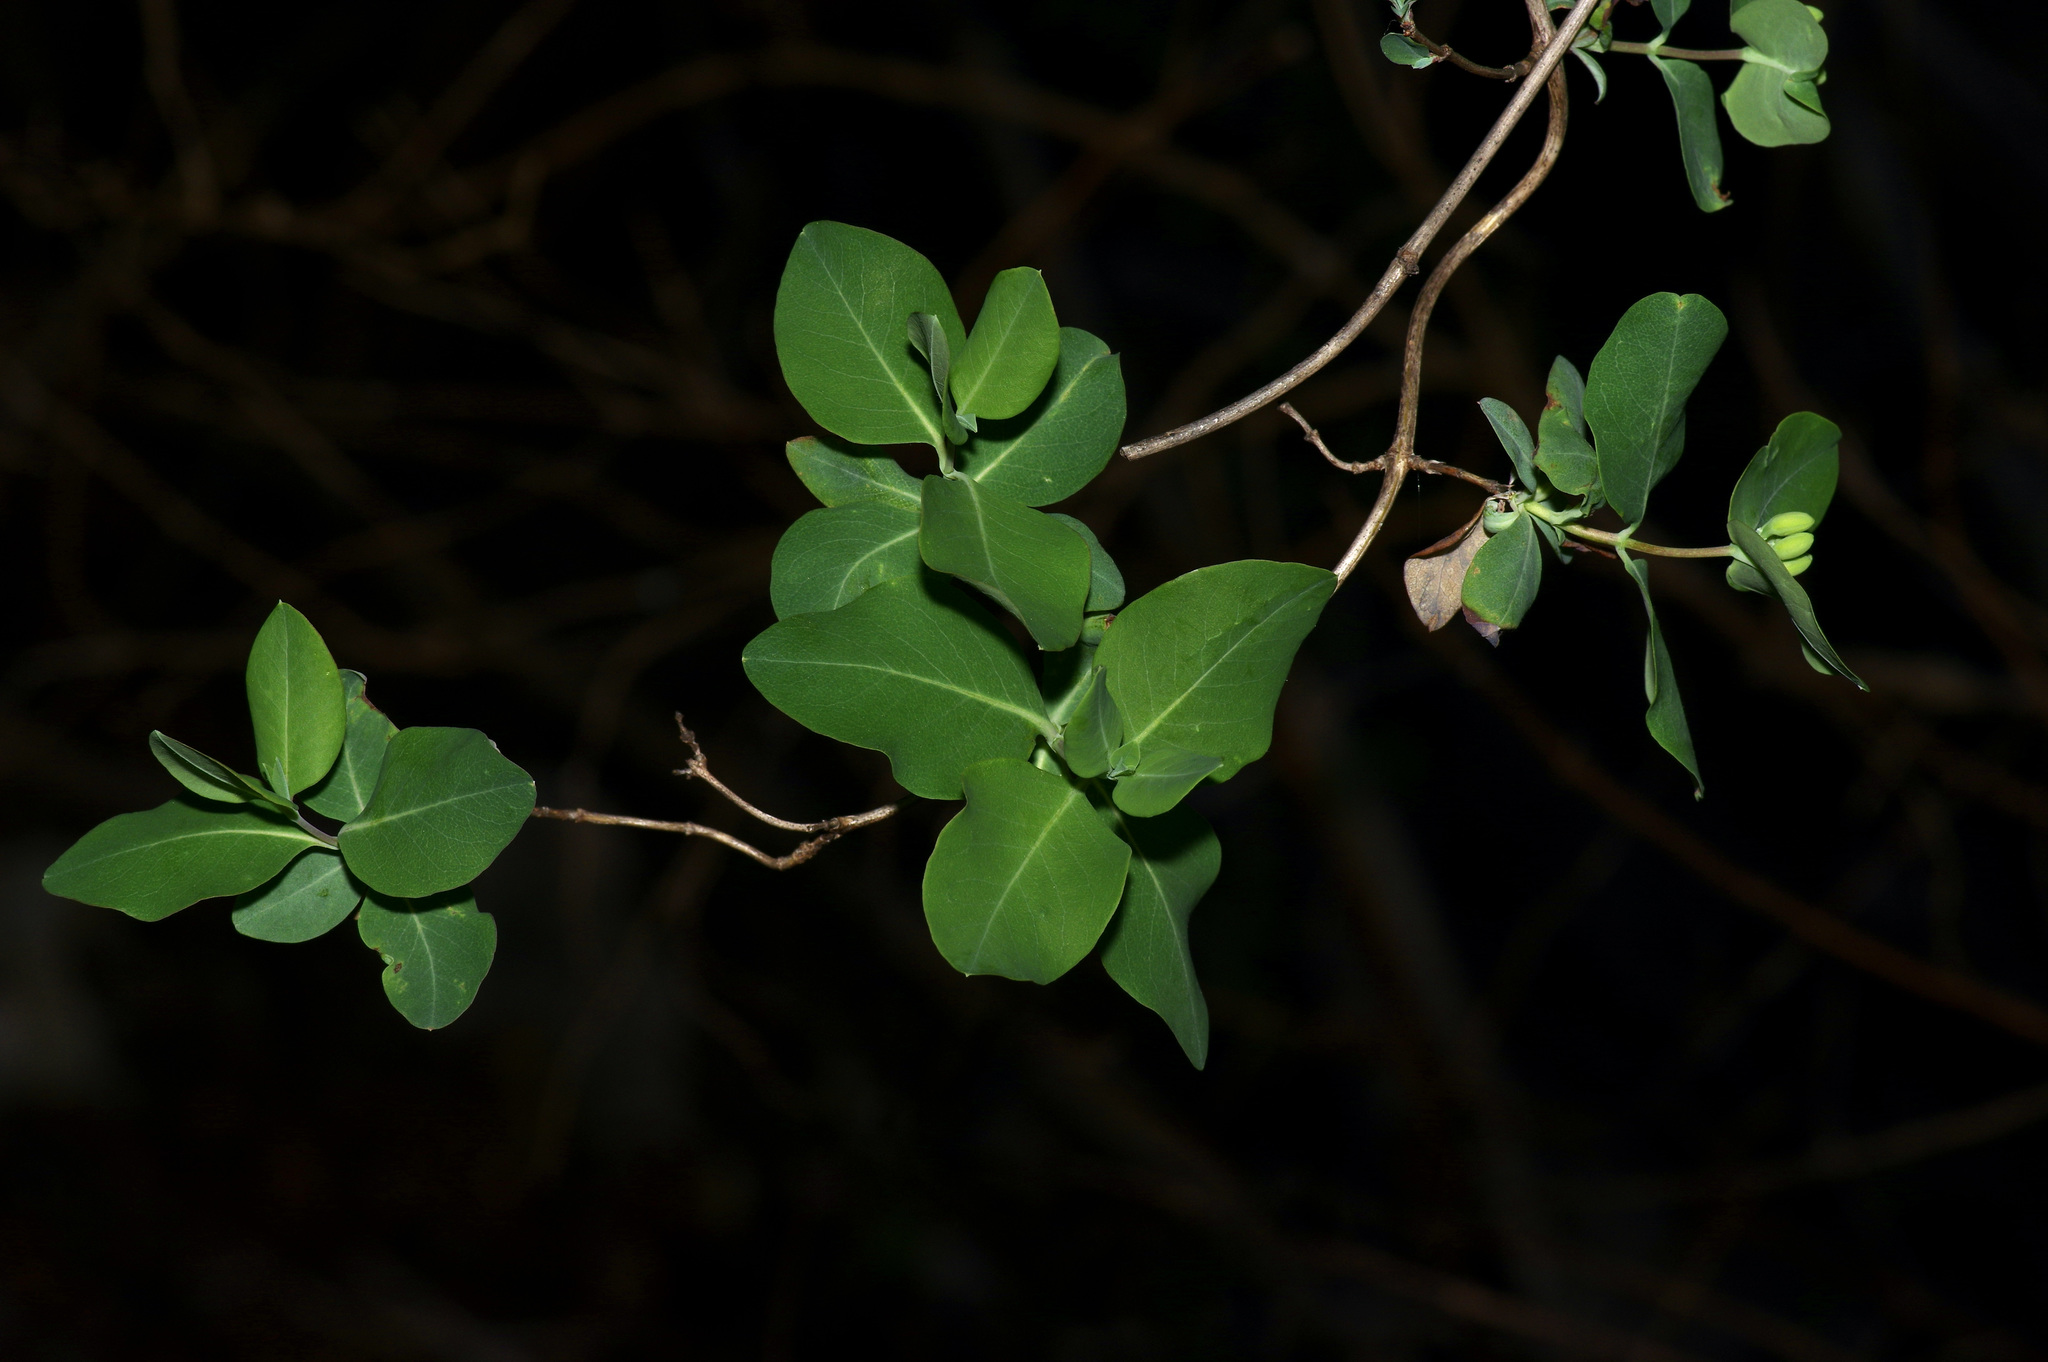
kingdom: Plantae
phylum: Tracheophyta
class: Magnoliopsida
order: Dipsacales
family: Caprifoliaceae
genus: Lonicera
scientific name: Lonicera albiflora
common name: White honeysuckle
